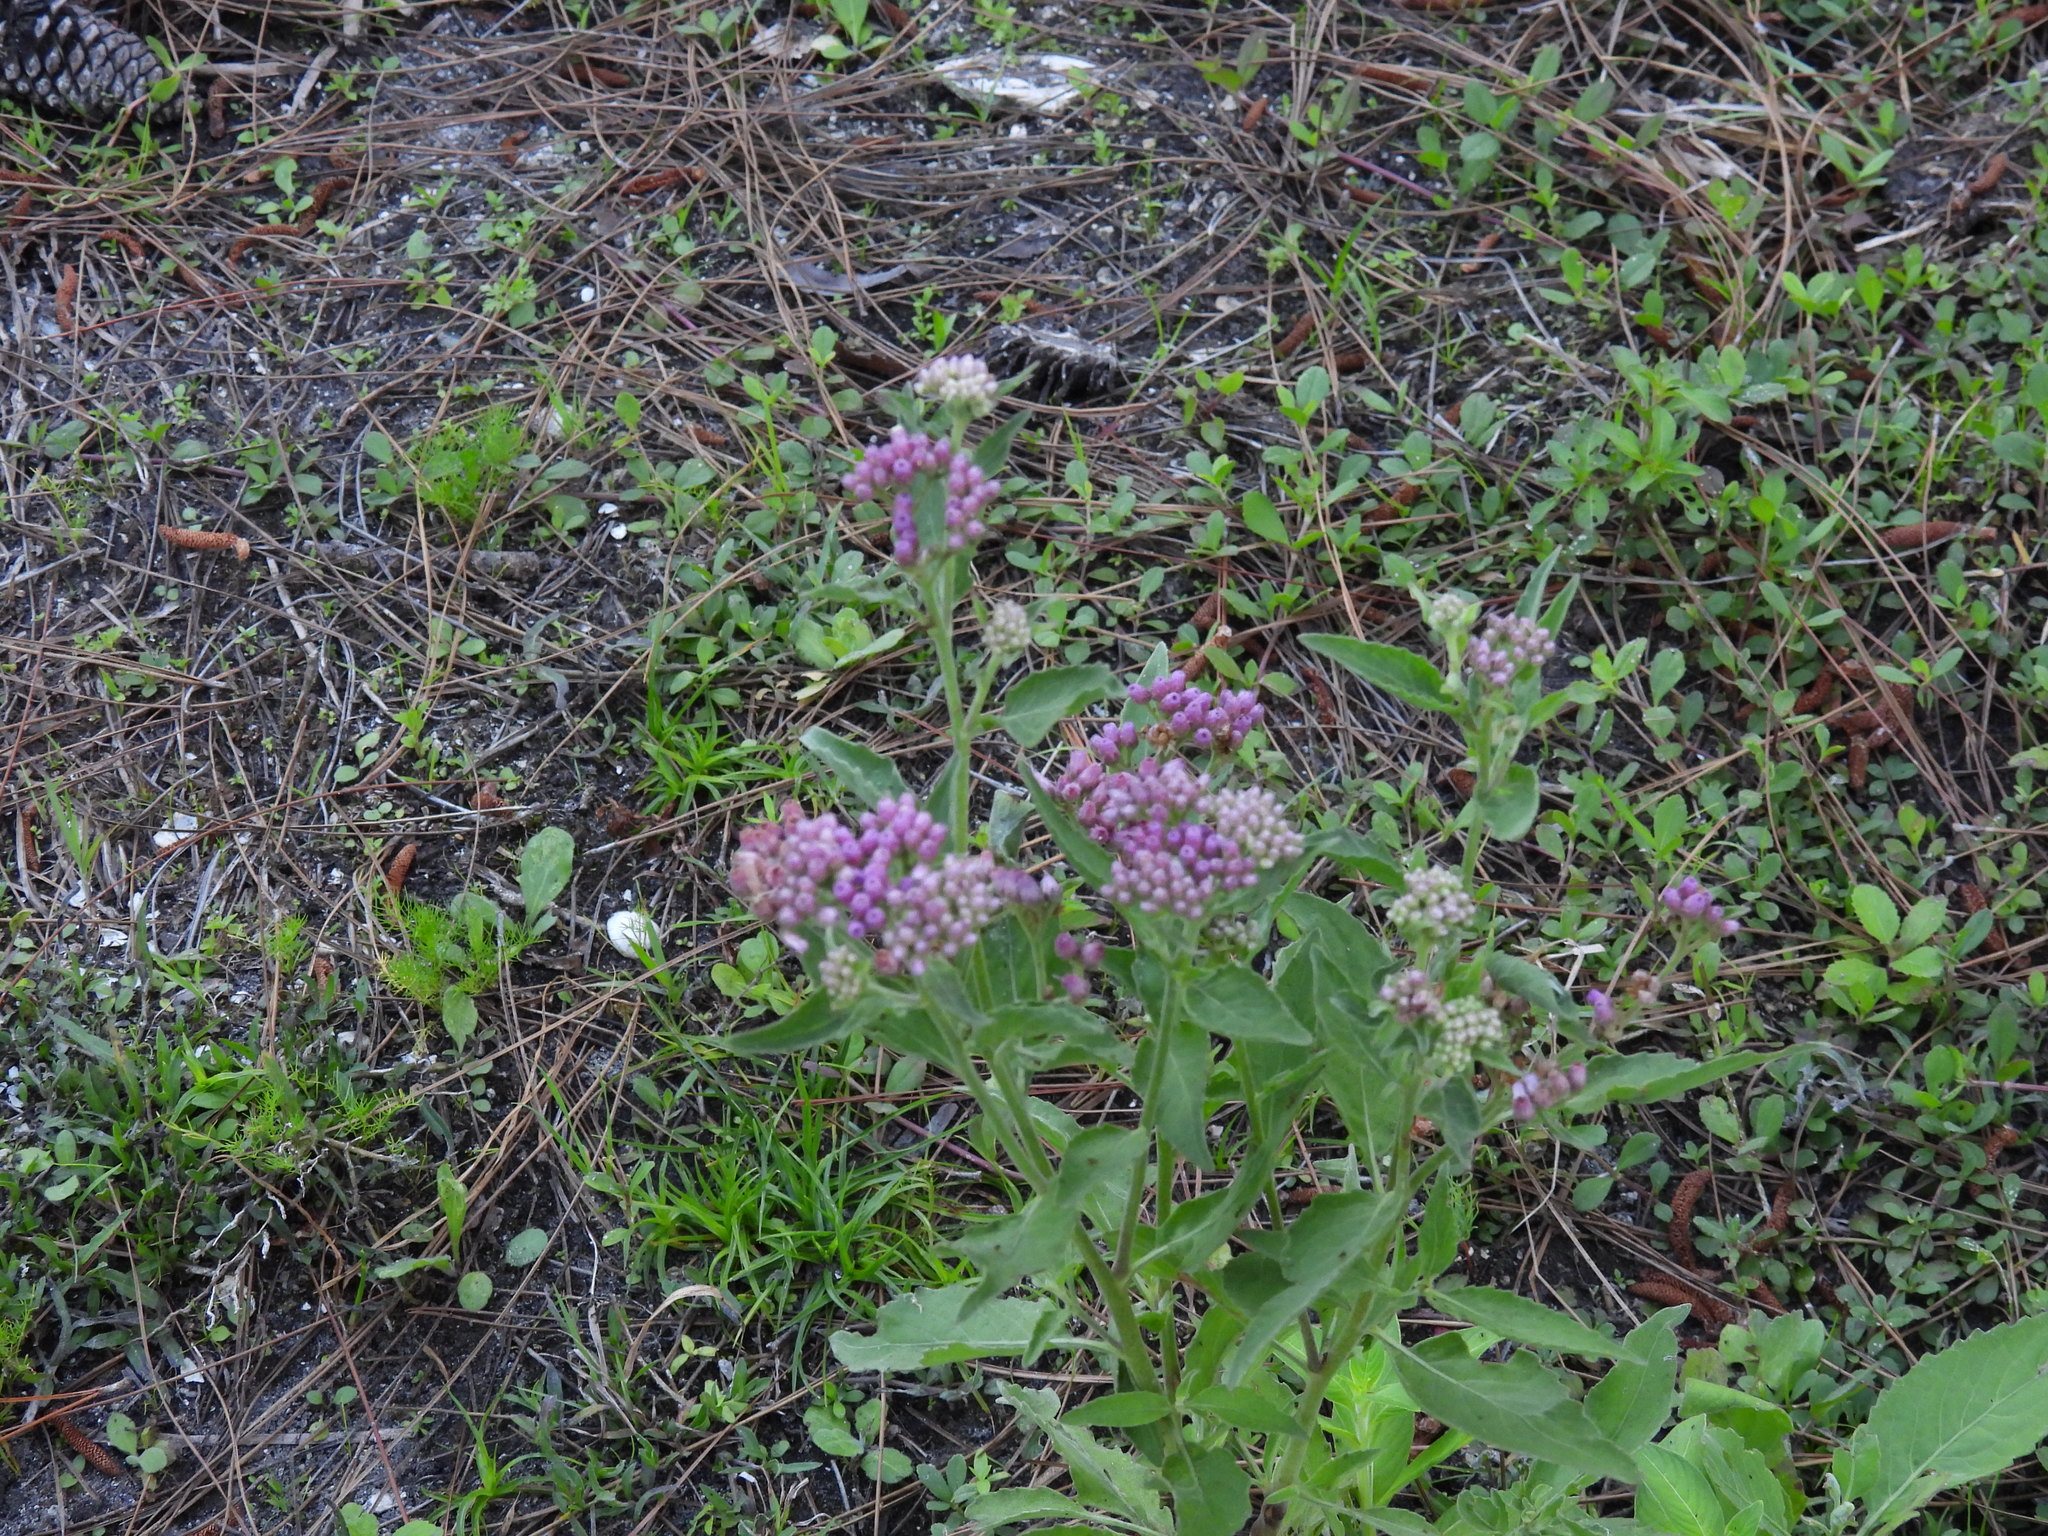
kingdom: Plantae
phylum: Tracheophyta
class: Magnoliopsida
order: Asterales
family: Asteraceae
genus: Pluchea
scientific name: Pluchea odorata
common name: Saltmarsh fleabane
